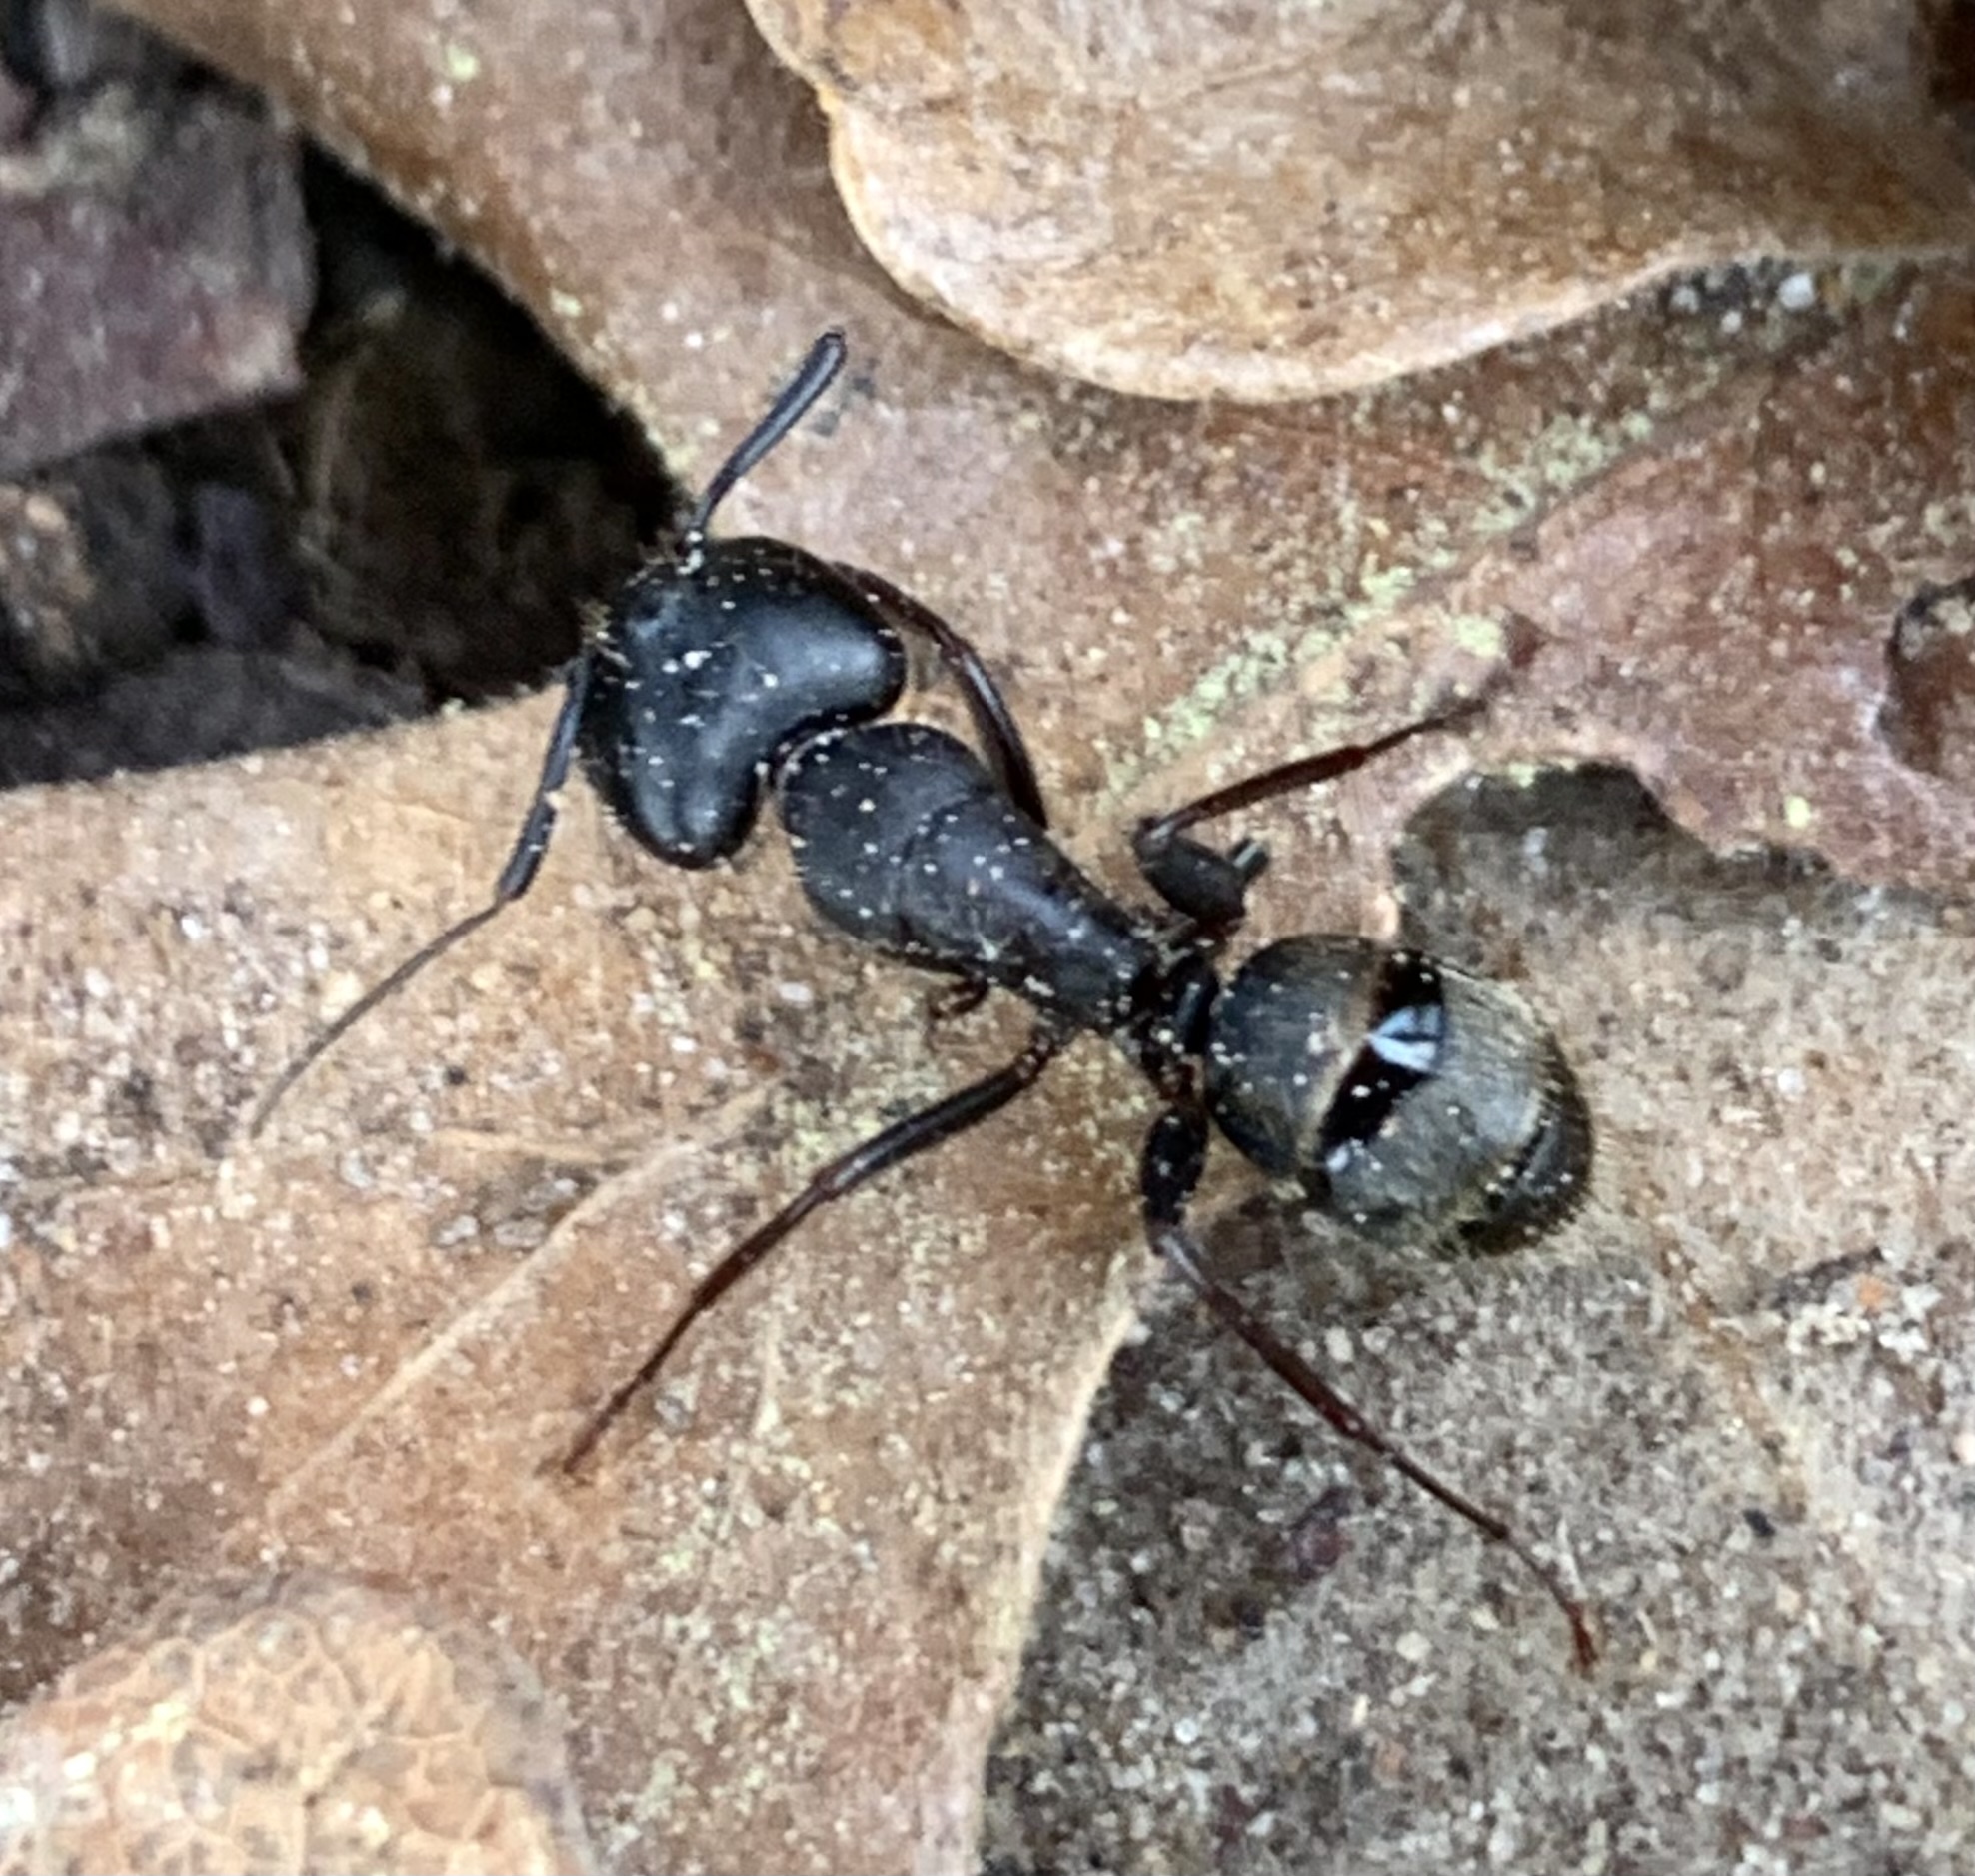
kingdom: Animalia
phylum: Arthropoda
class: Insecta
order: Hymenoptera
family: Formicidae
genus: Camponotus
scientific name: Camponotus pennsylvanicus
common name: Black carpenter ant
